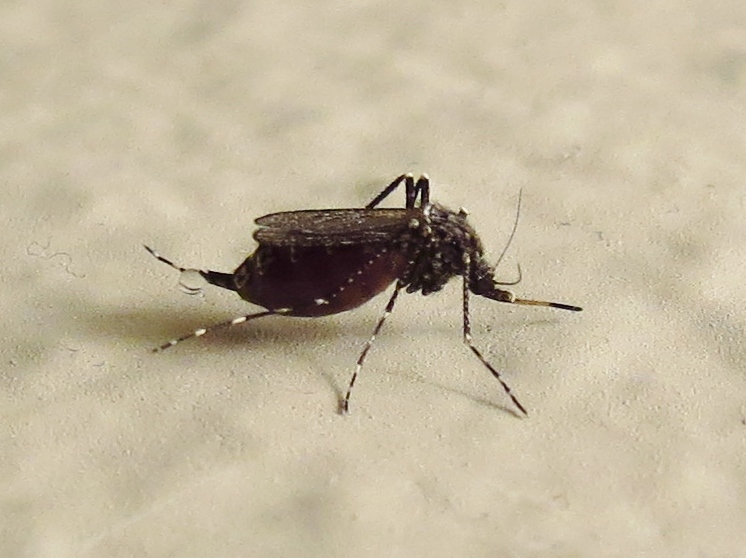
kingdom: Animalia
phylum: Arthropoda
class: Insecta
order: Diptera
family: Culicidae
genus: Psorophora
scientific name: Psorophora columbiae
